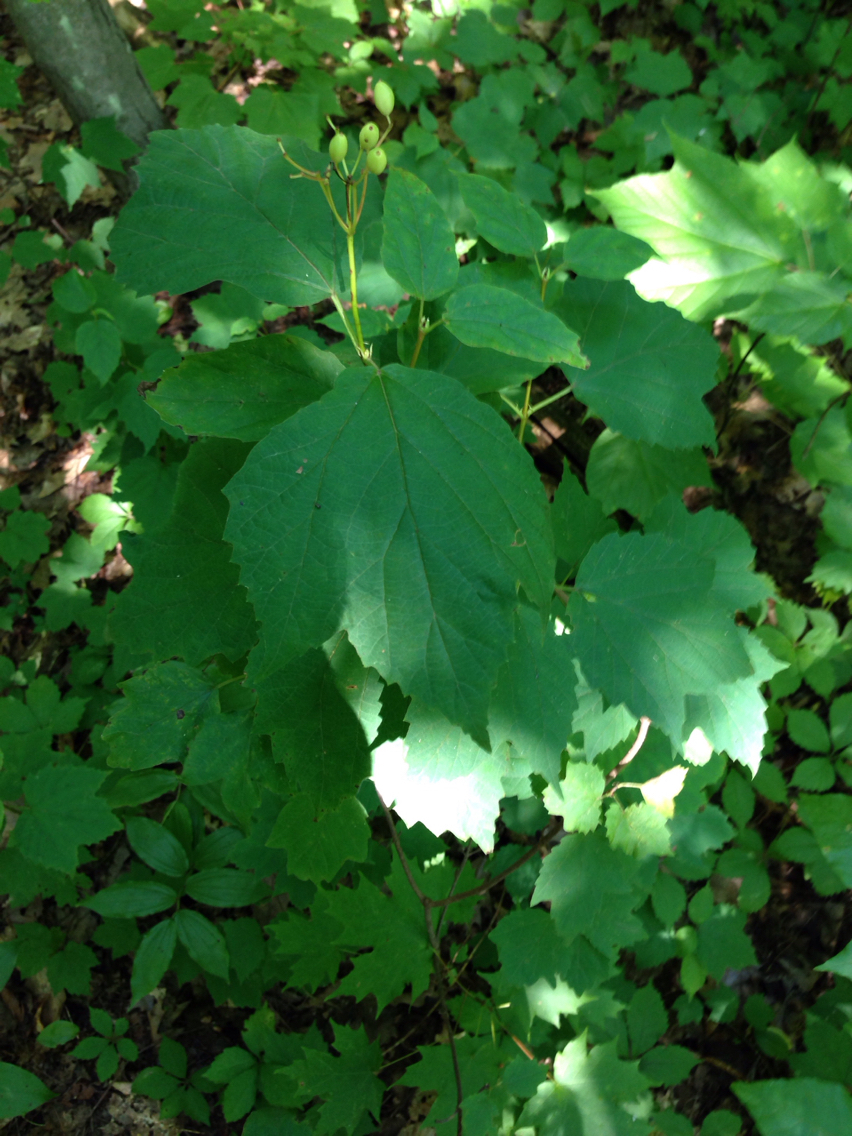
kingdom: Plantae
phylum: Tracheophyta
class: Magnoliopsida
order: Dipsacales
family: Viburnaceae
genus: Viburnum
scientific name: Viburnum acerifolium
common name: Dockmackie
